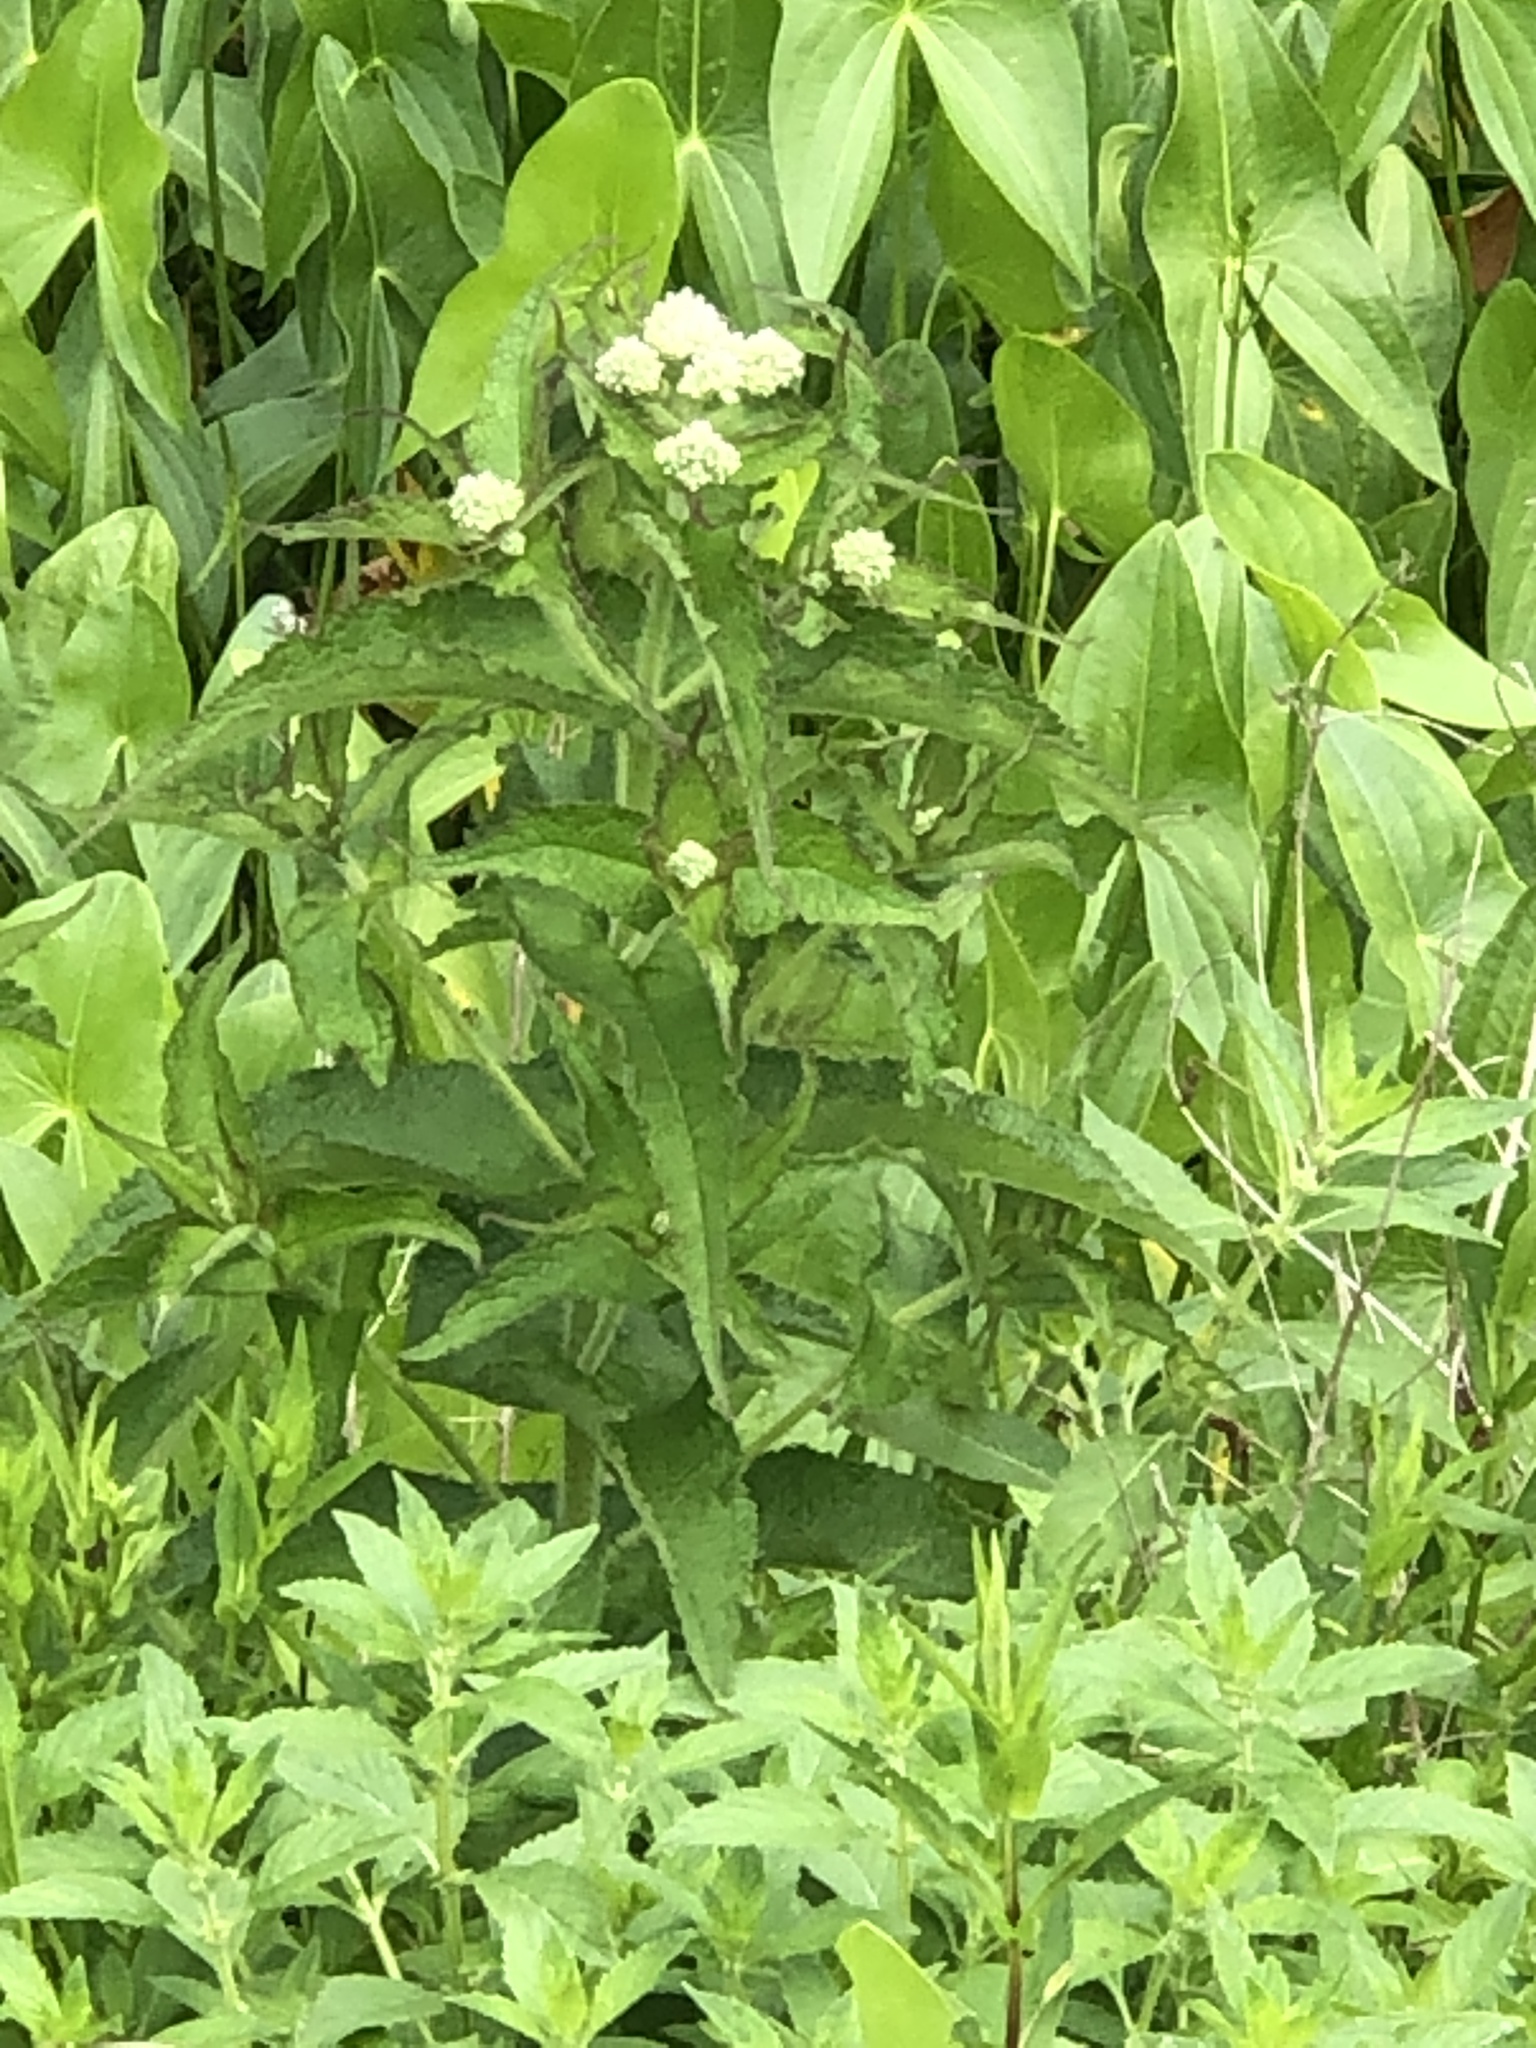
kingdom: Plantae
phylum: Tracheophyta
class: Magnoliopsida
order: Asterales
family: Asteraceae
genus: Eupatorium
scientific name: Eupatorium perfoliatum
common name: Boneset
